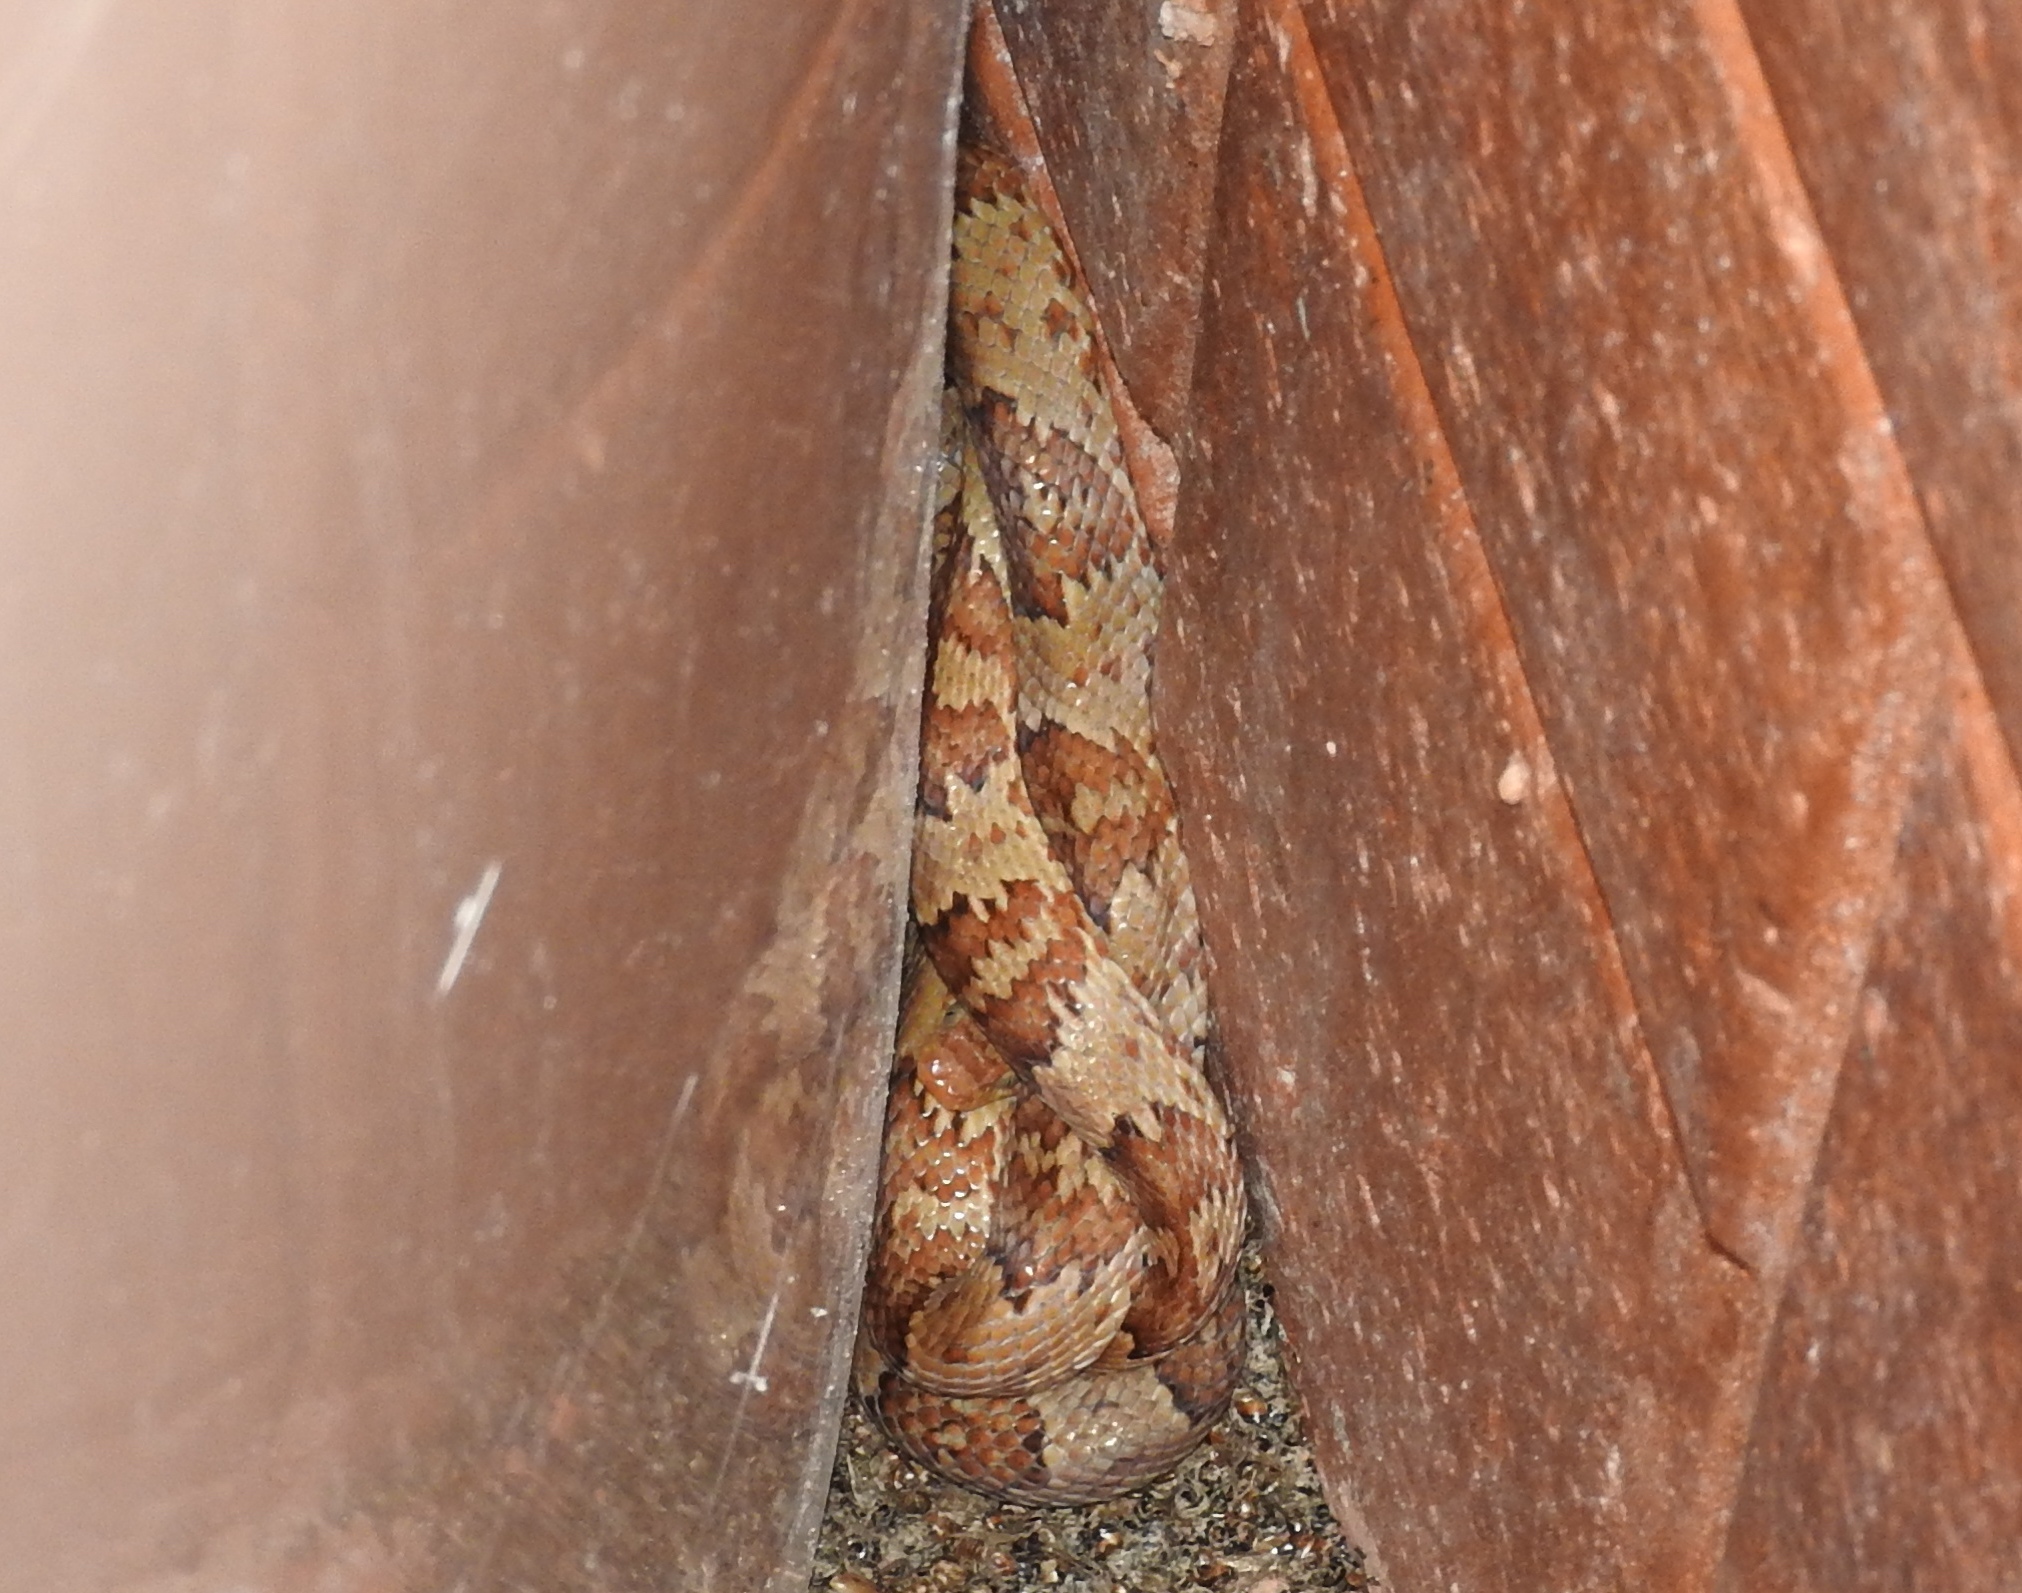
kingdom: Animalia
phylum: Chordata
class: Squamata
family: Colubridae
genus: Trimorphodon
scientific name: Trimorphodon paucimaculatus
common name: Sinaloan lyresnake
